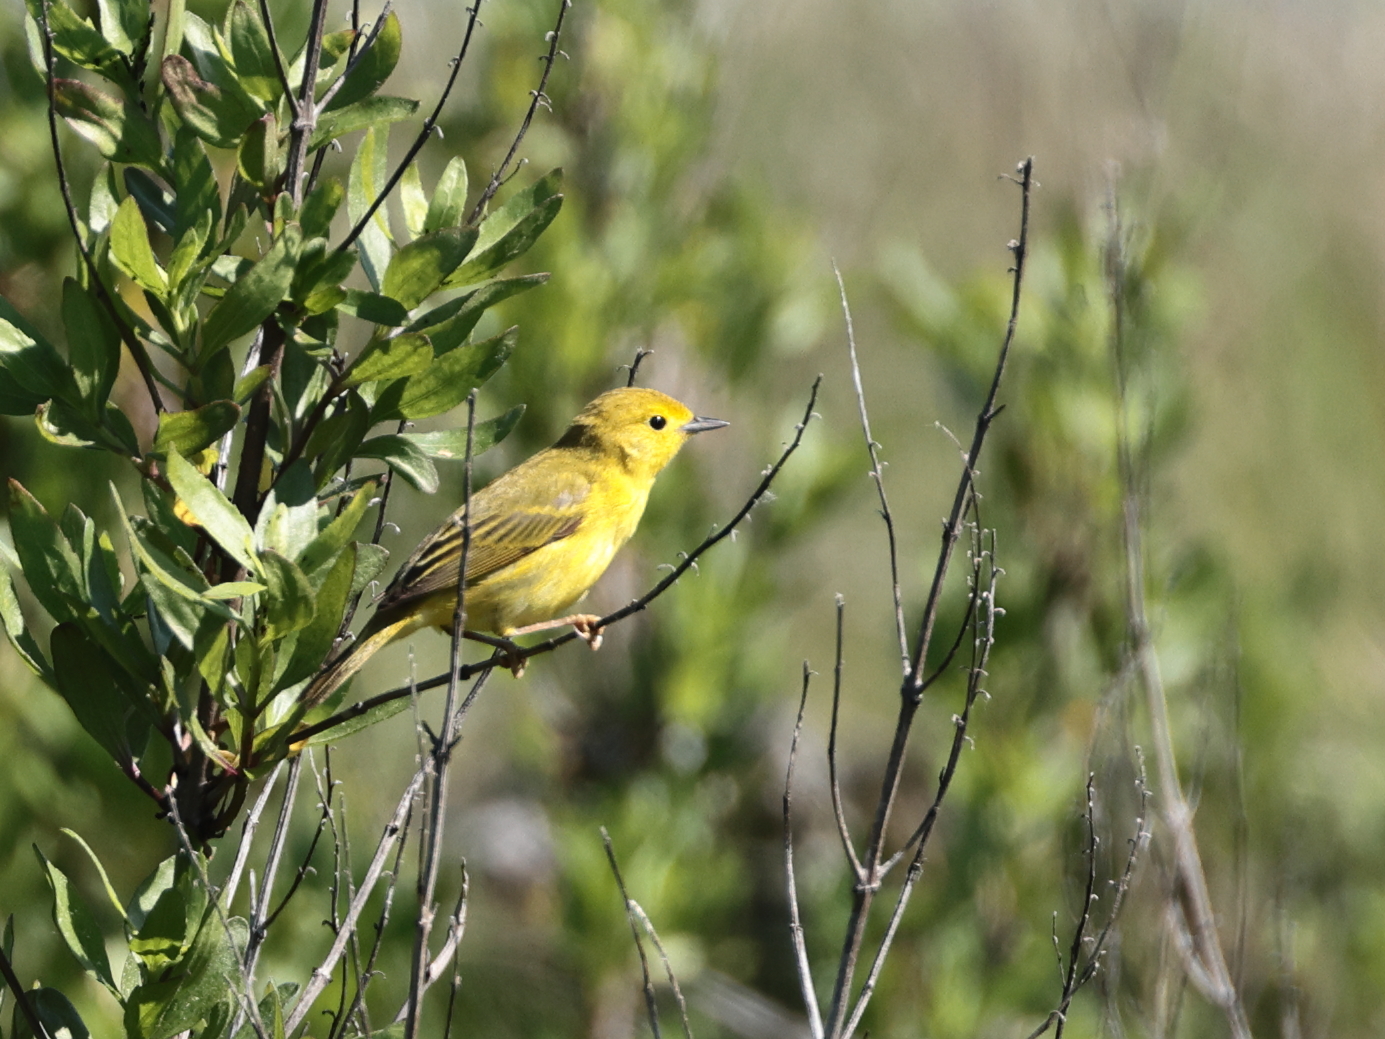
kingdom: Animalia
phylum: Chordata
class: Aves
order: Passeriformes
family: Parulidae
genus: Setophaga
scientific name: Setophaga petechia
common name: Yellow warbler
